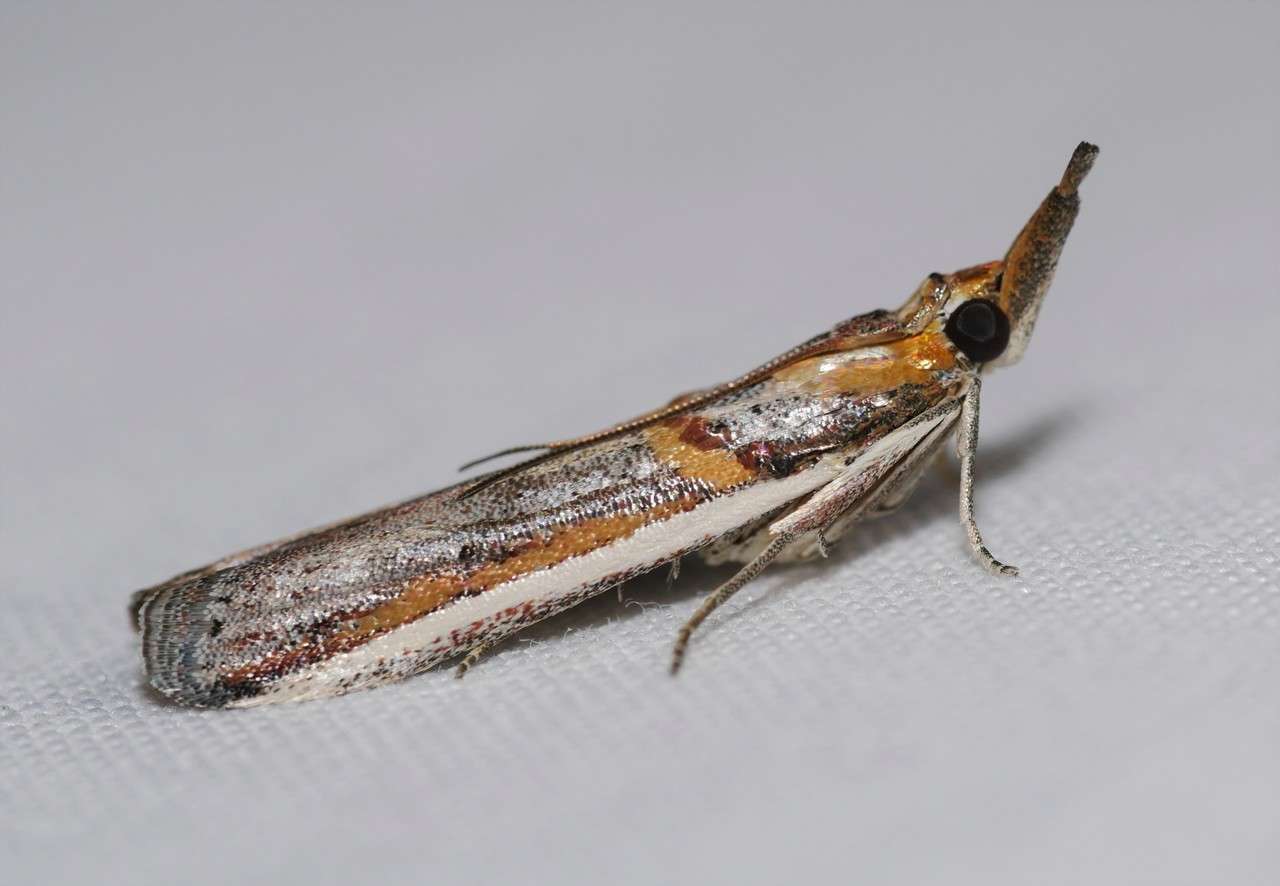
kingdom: Animalia
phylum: Arthropoda
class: Insecta
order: Lepidoptera
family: Pyralidae
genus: Etiella
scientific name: Etiella behrii
